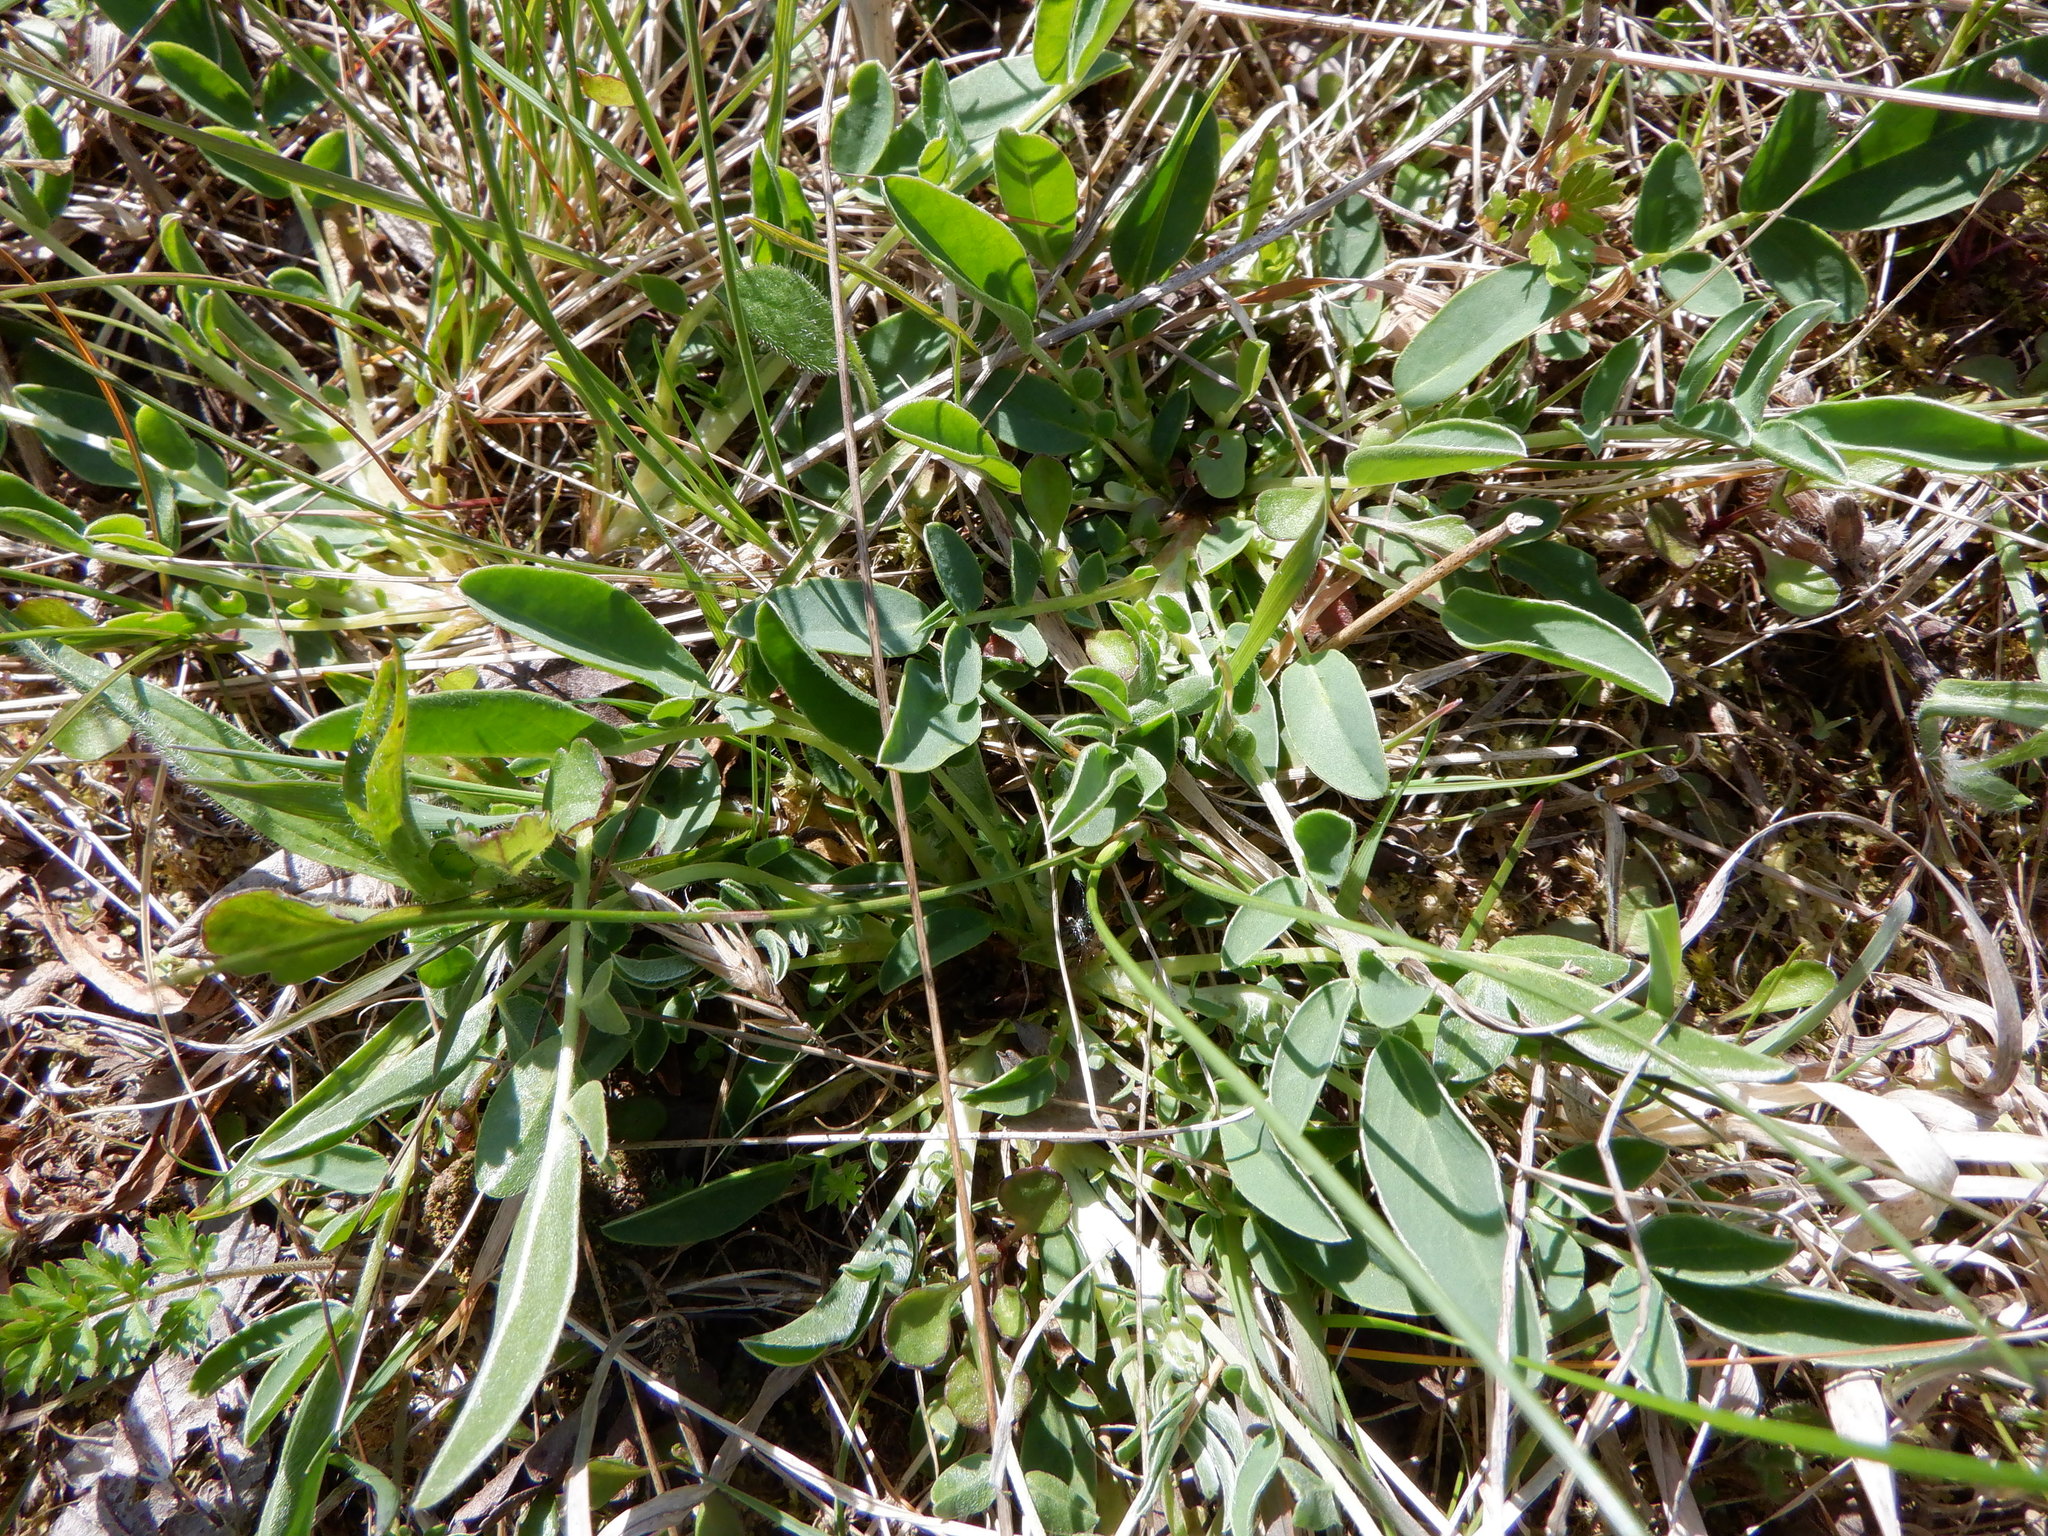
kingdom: Plantae
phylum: Tracheophyta
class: Magnoliopsida
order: Fabales
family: Fabaceae
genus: Anthyllis
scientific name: Anthyllis vulneraria
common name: Kidney vetch
